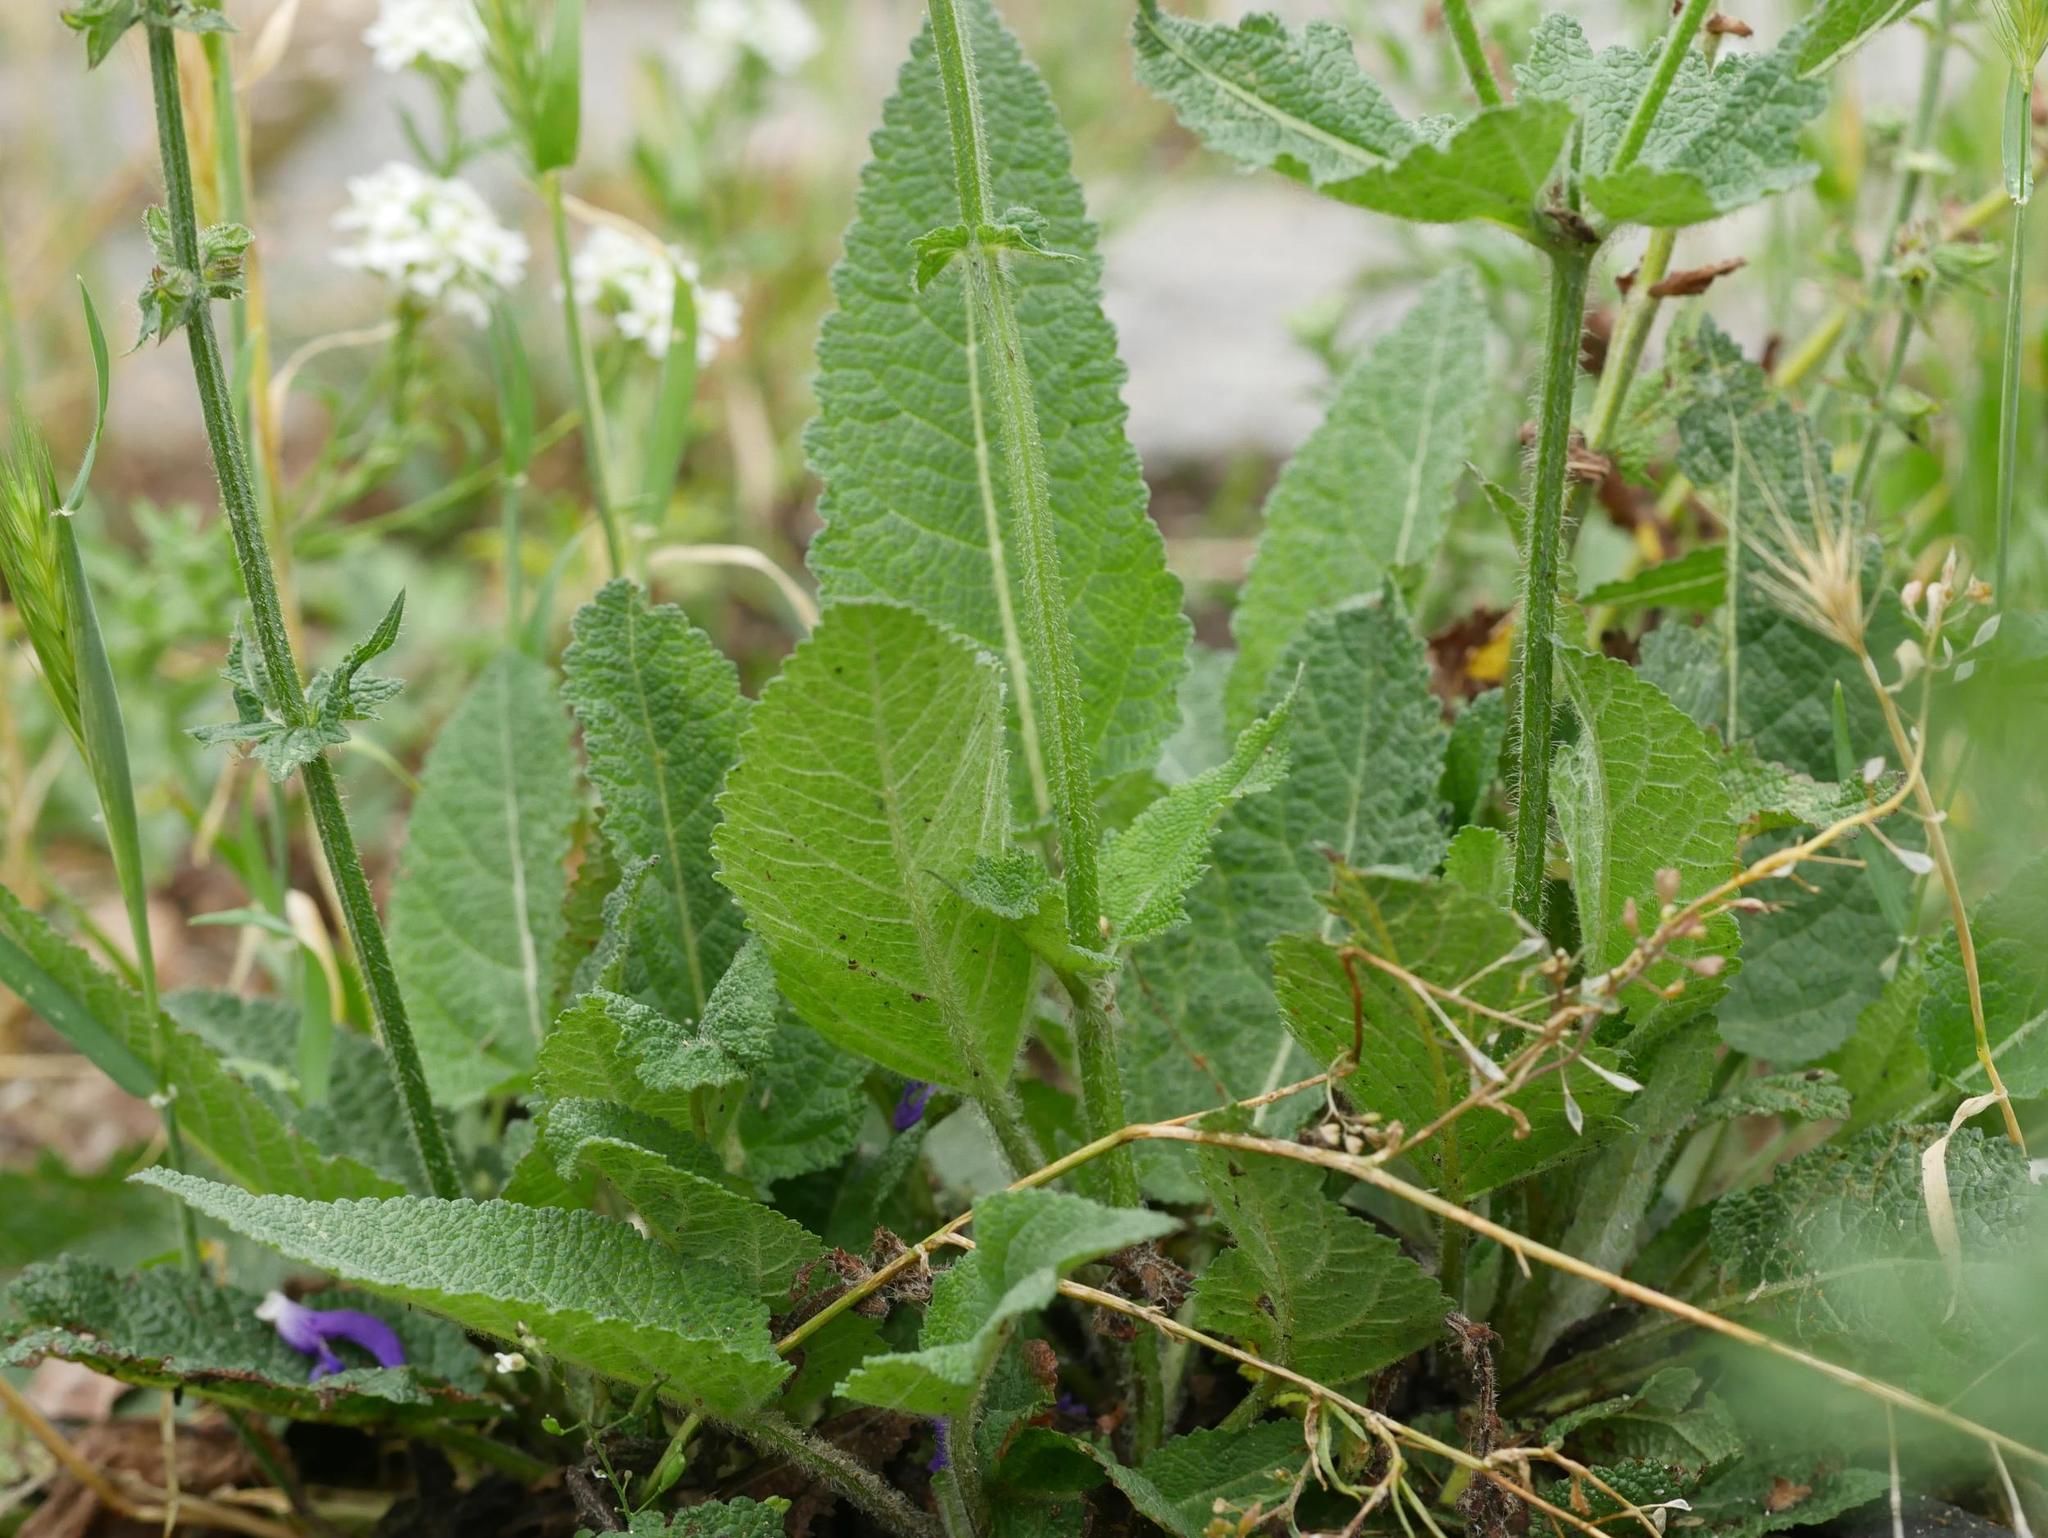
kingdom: Plantae
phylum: Tracheophyta
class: Magnoliopsida
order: Lamiales
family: Lamiaceae
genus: Salvia
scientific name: Salvia pratensis
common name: Meadow sage
